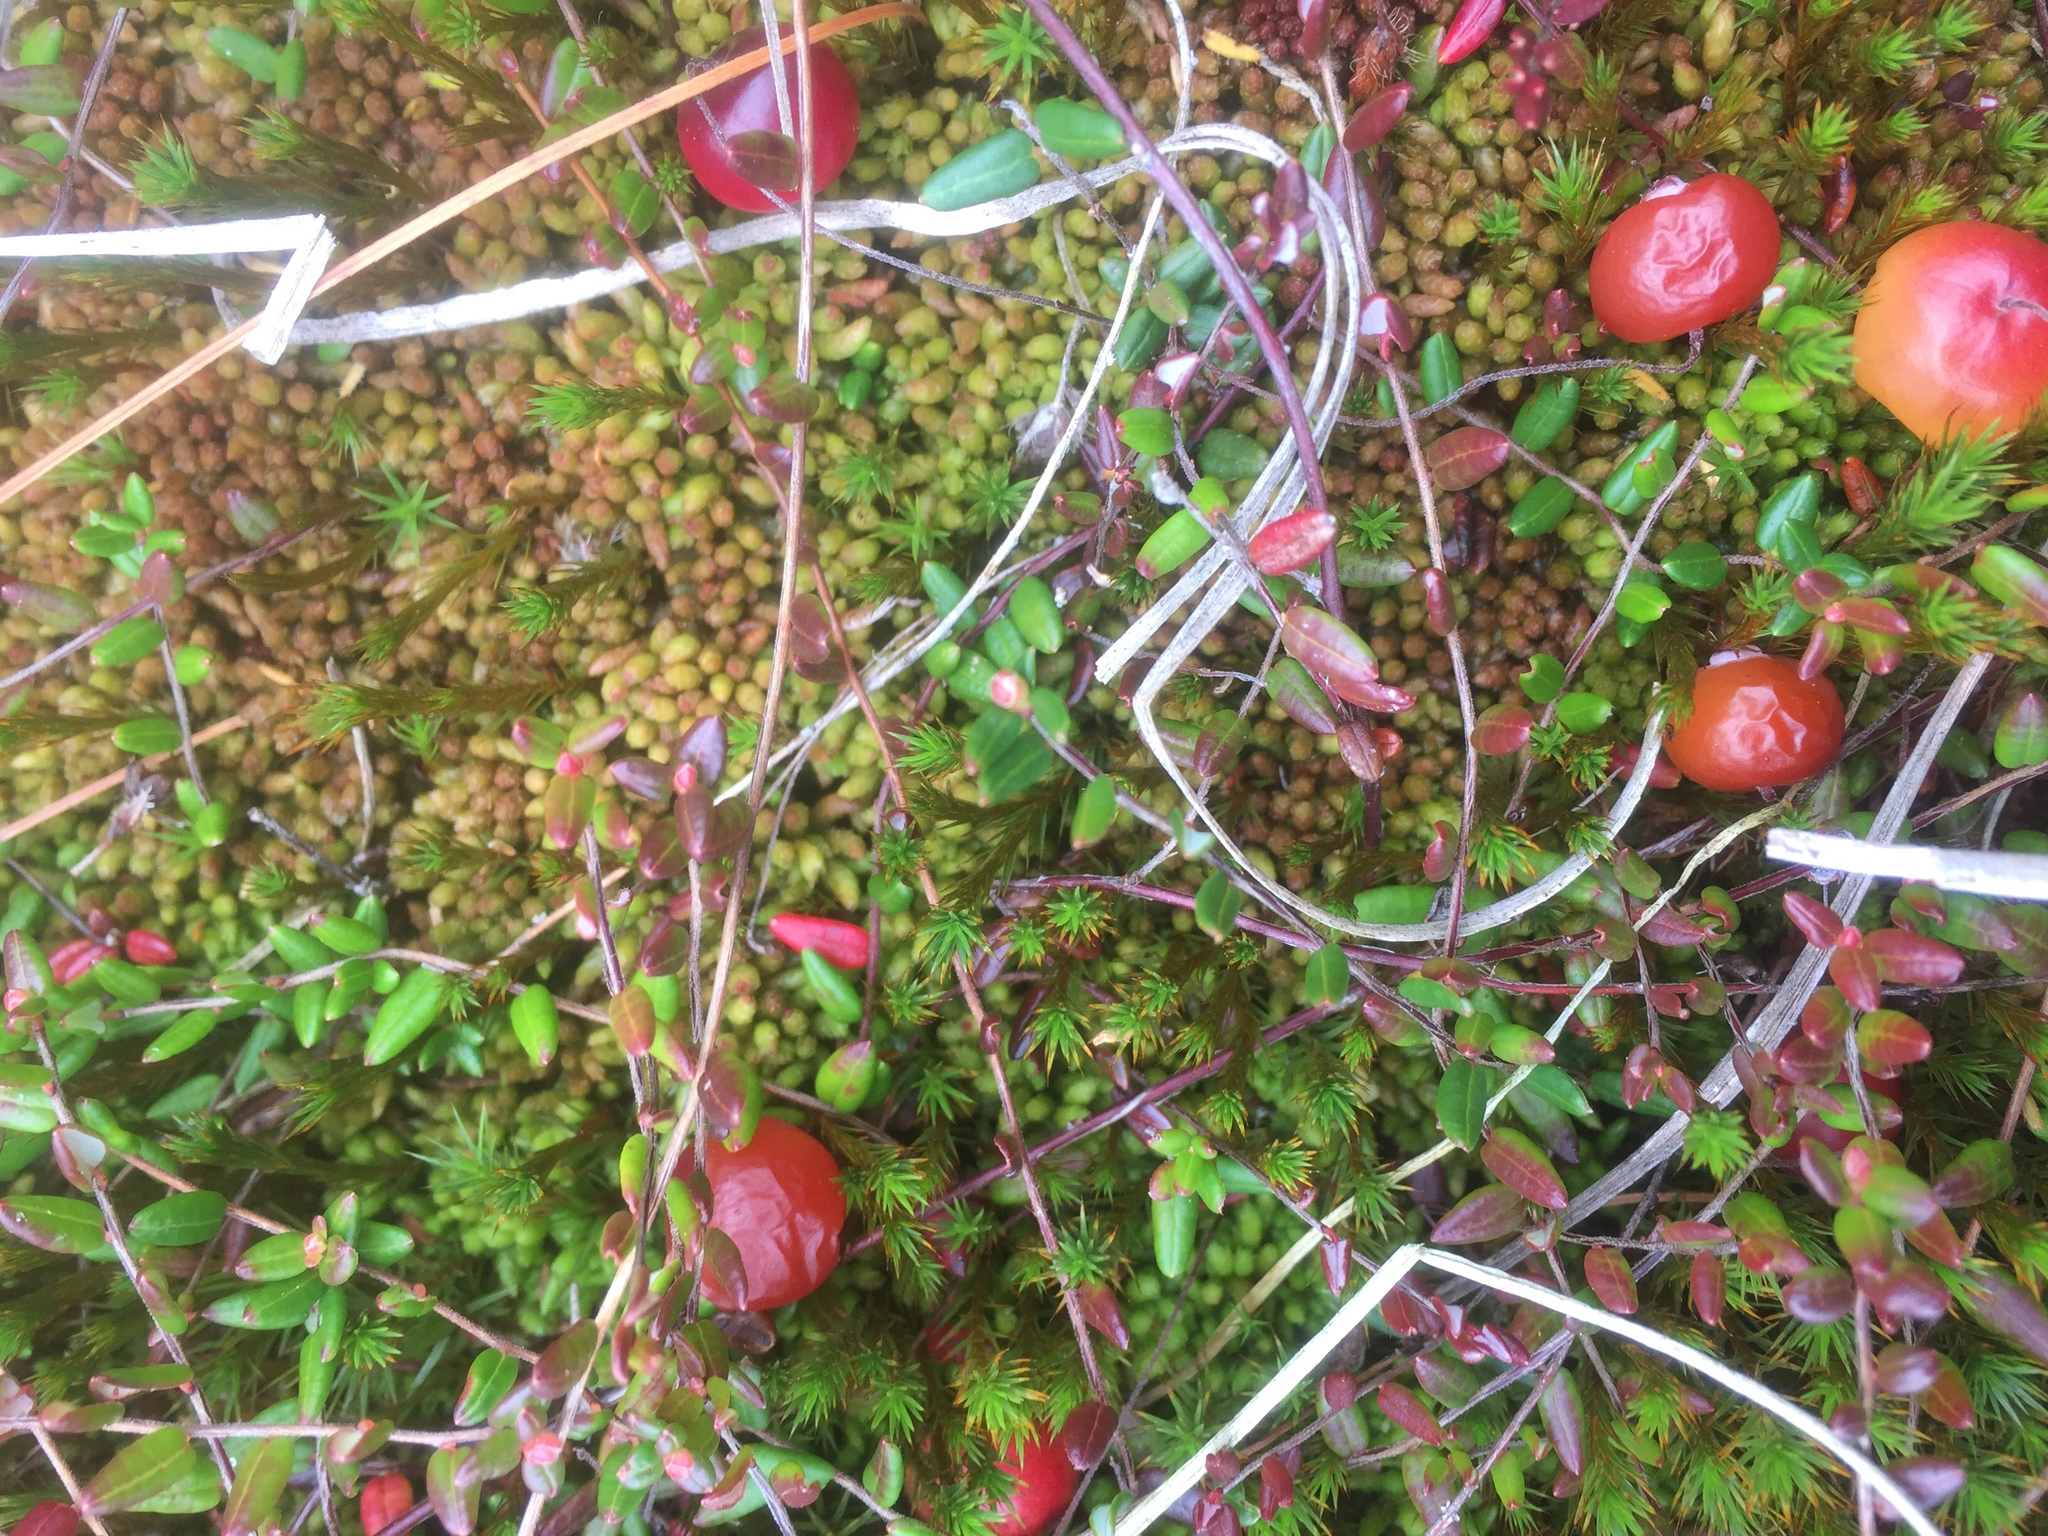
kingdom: Plantae
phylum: Tracheophyta
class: Magnoliopsida
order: Ericales
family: Ericaceae
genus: Vaccinium
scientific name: Vaccinium oxycoccos
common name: Cranberry
